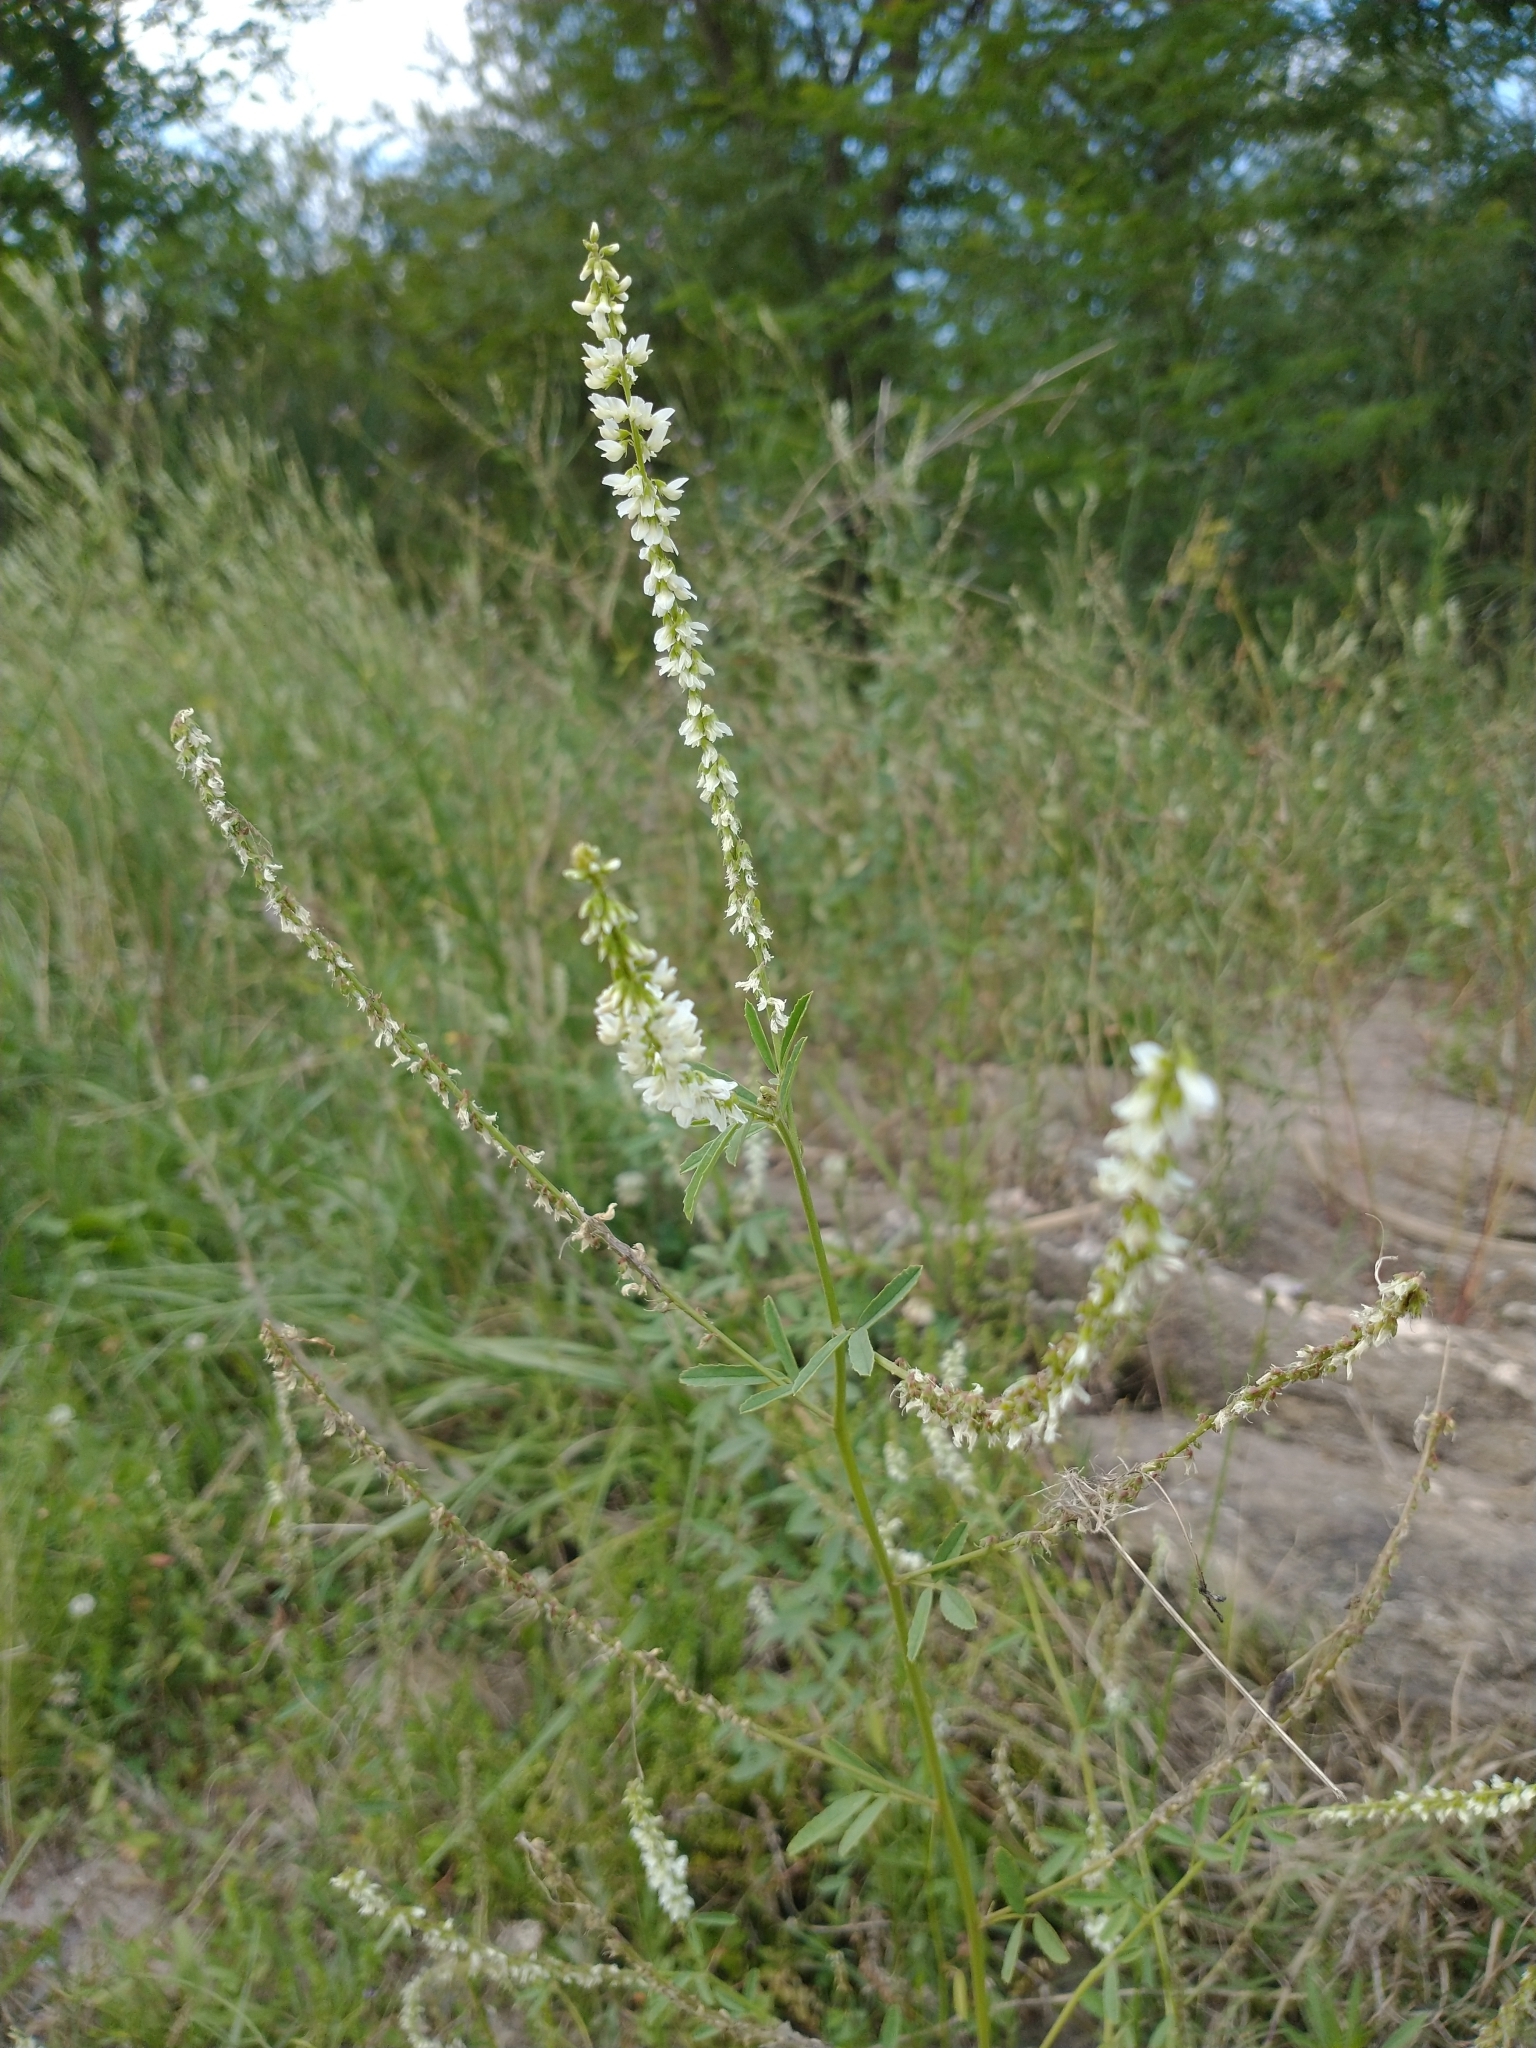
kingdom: Plantae
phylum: Tracheophyta
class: Magnoliopsida
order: Fabales
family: Fabaceae
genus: Melilotus
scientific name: Melilotus albus
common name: White melilot
